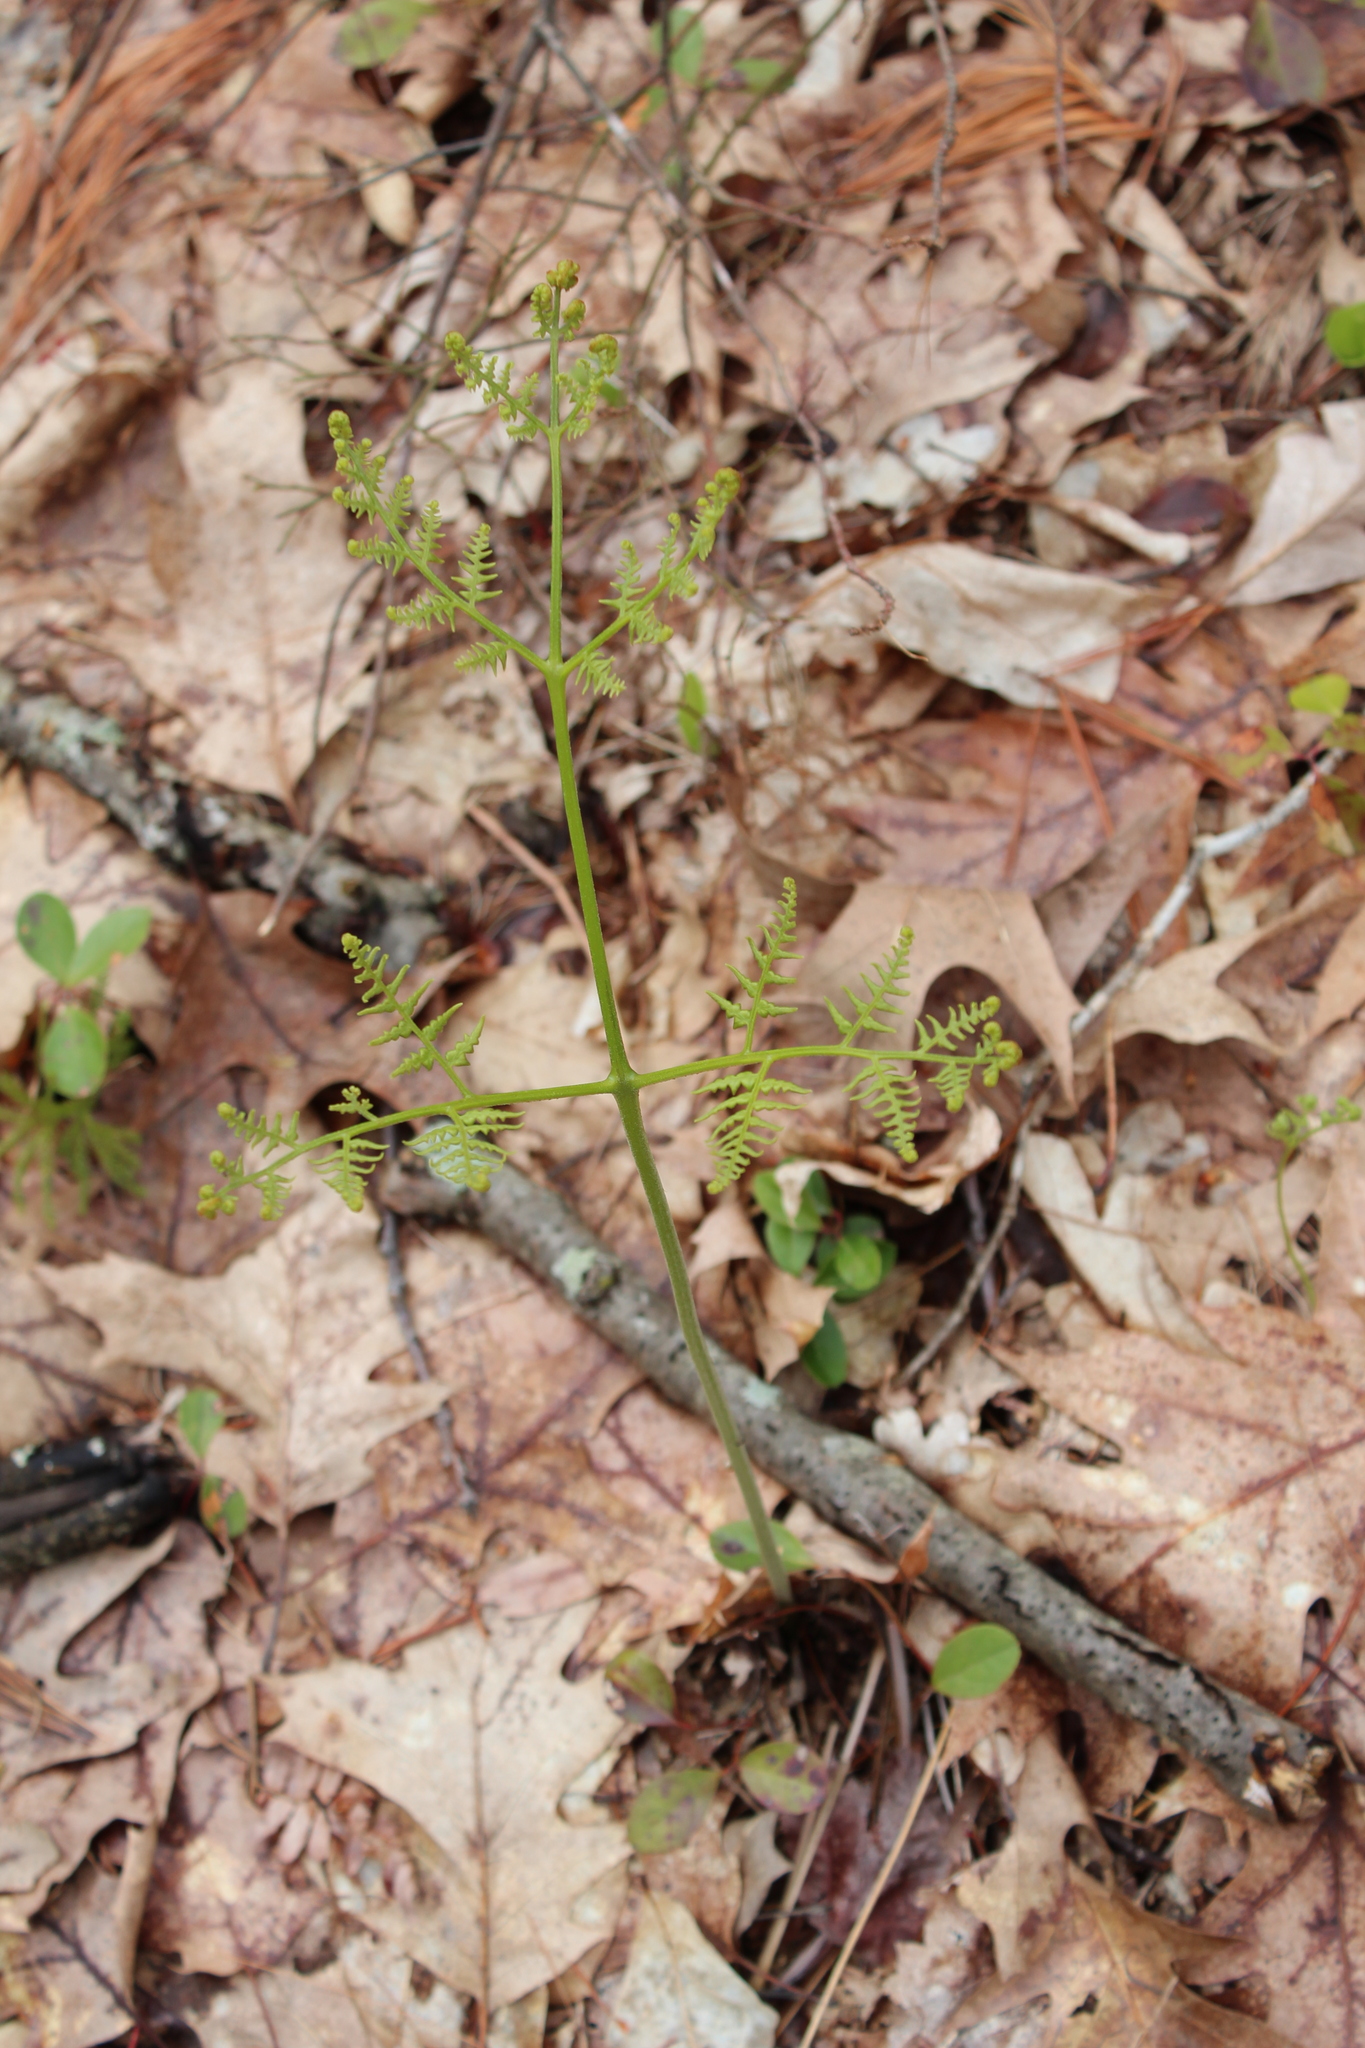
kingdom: Plantae
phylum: Tracheophyta
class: Polypodiopsida
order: Polypodiales
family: Dennstaedtiaceae
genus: Pteridium
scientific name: Pteridium aquilinum
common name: Bracken
